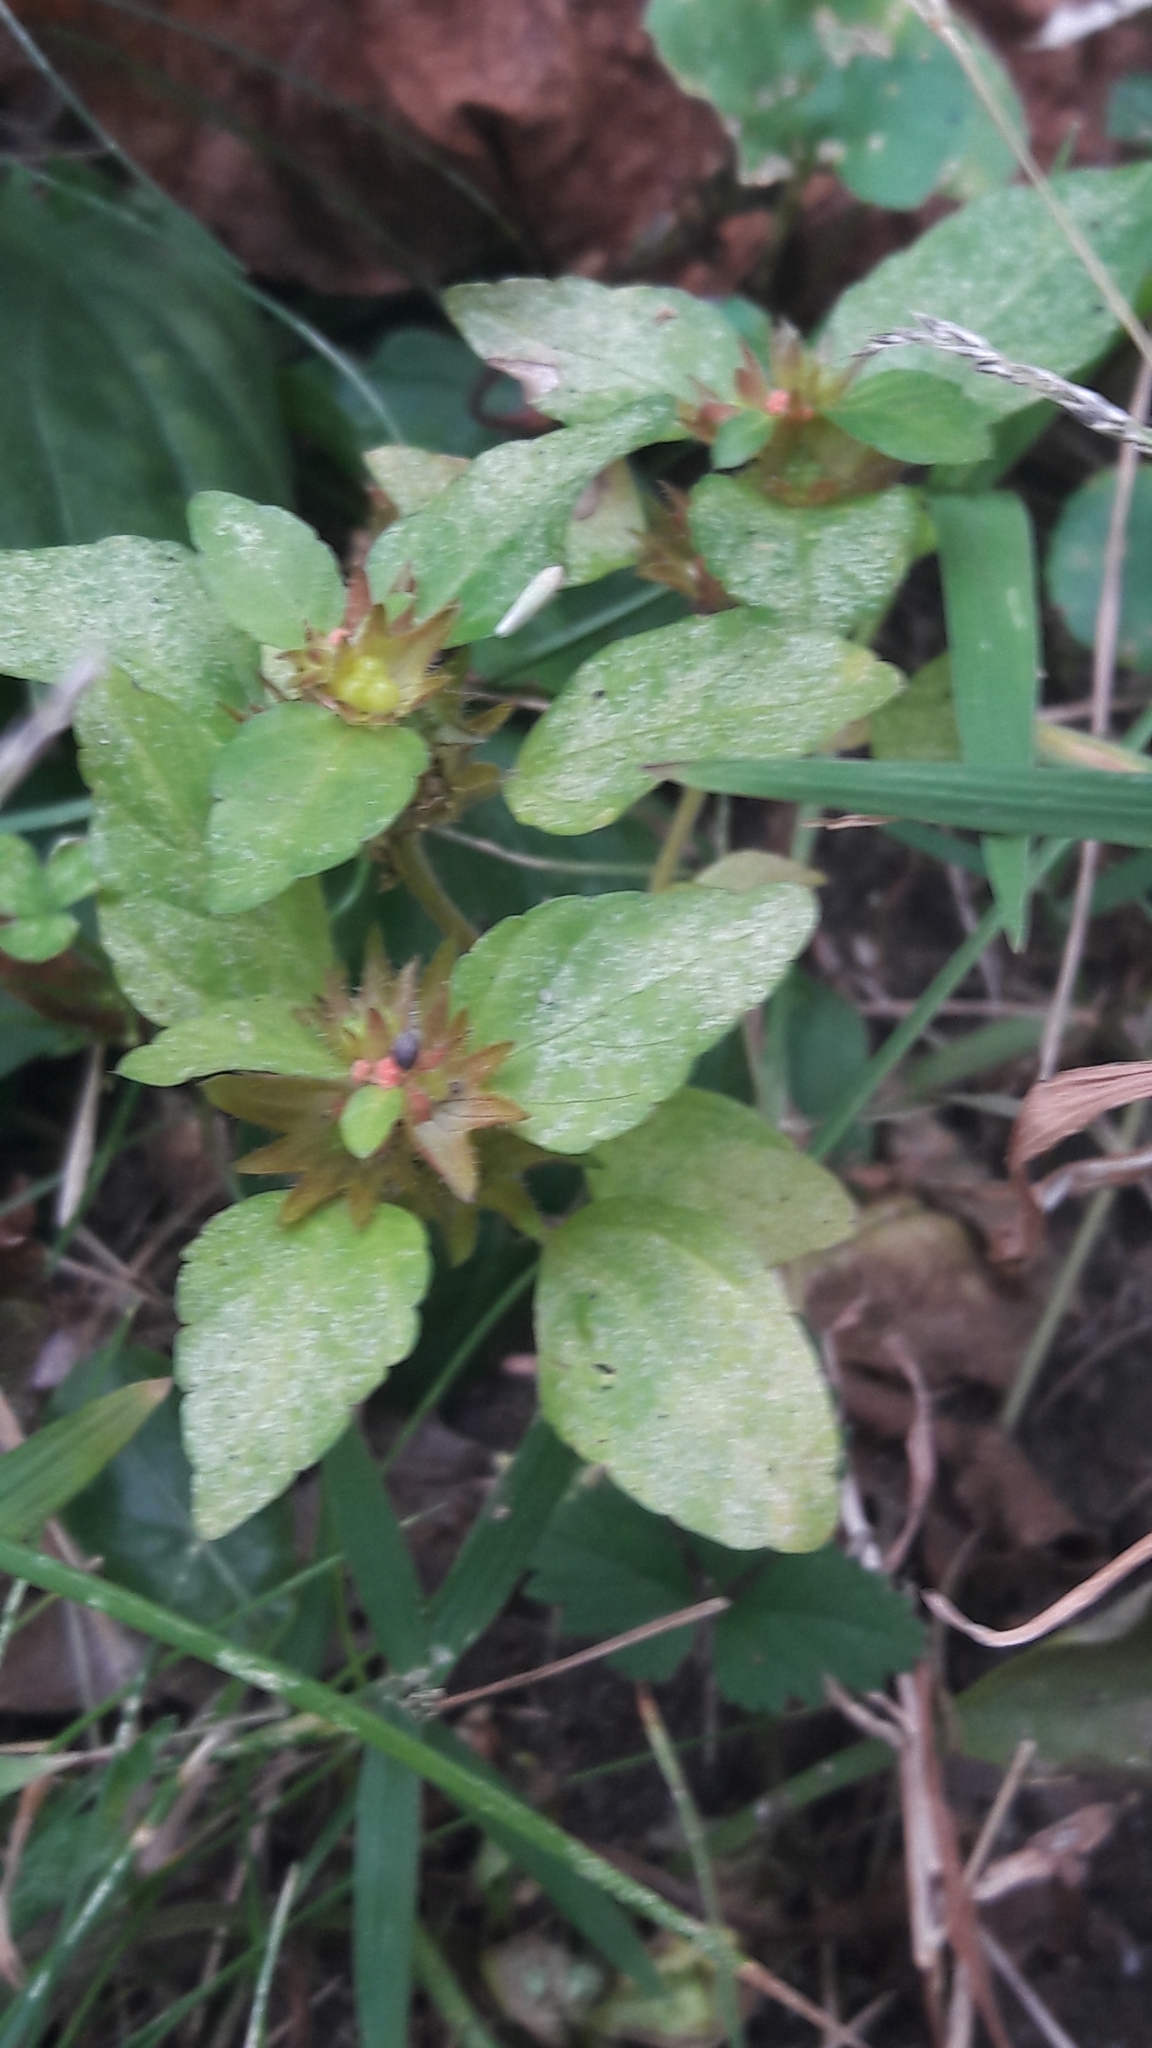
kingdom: Plantae
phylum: Tracheophyta
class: Magnoliopsida
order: Malpighiales
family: Euphorbiaceae
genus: Acalypha
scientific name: Acalypha rhomboidea
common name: Rhombic copperleaf
